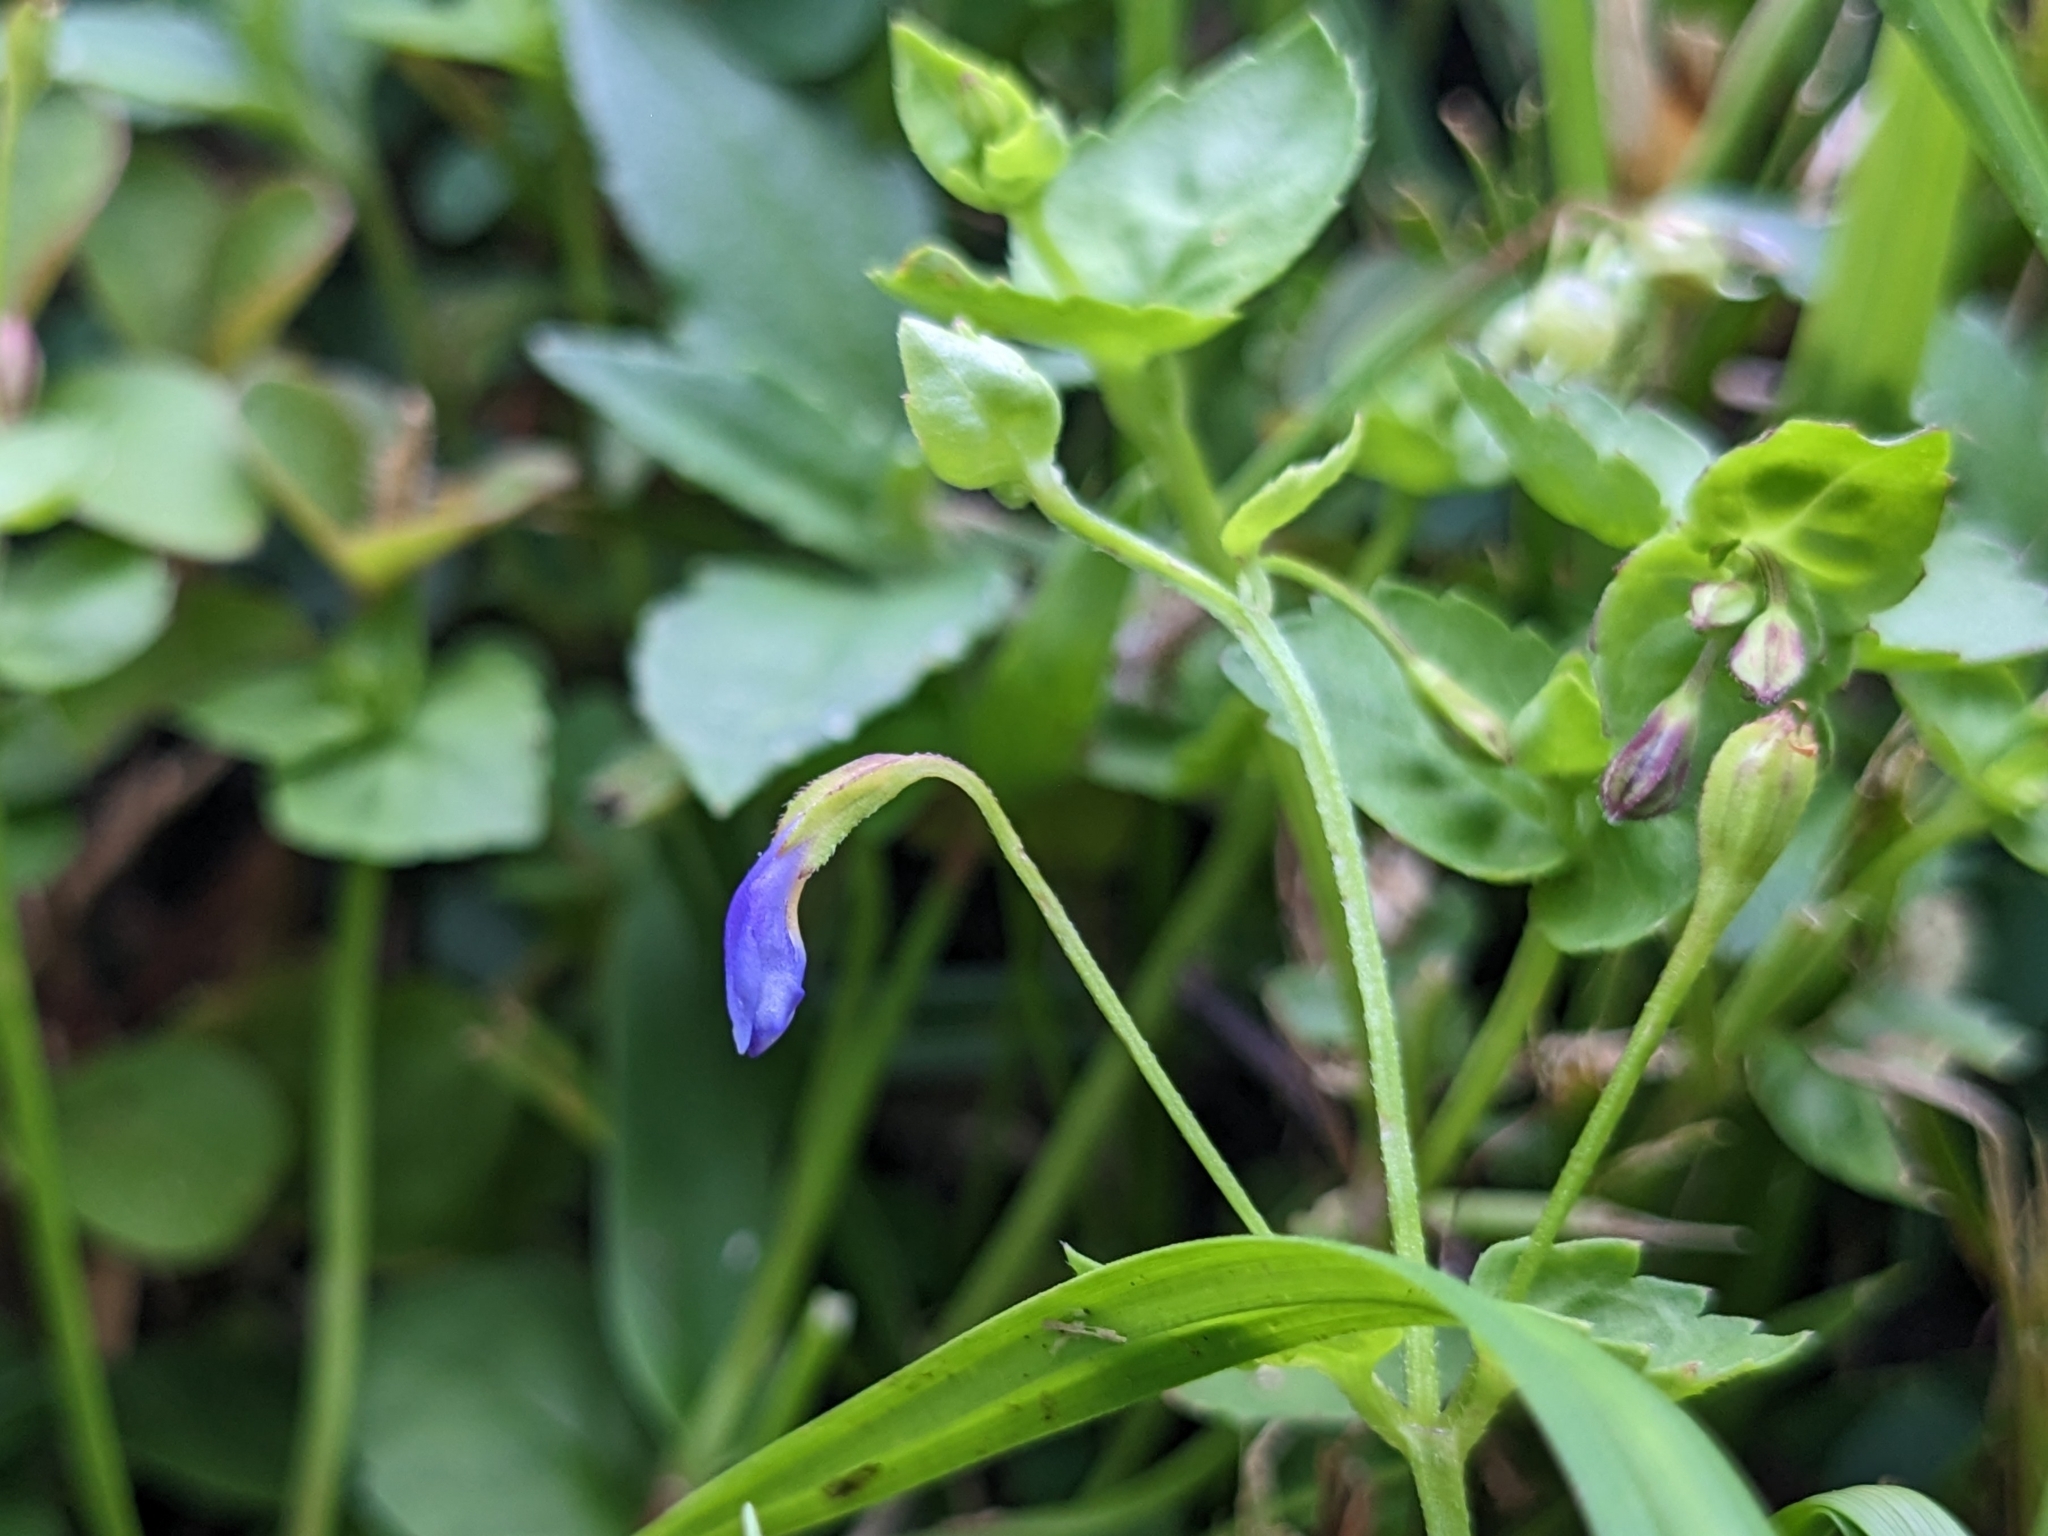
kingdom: Plantae
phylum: Tracheophyta
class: Magnoliopsida
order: Lamiales
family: Linderniaceae
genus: Torenia
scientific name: Torenia crustacea
